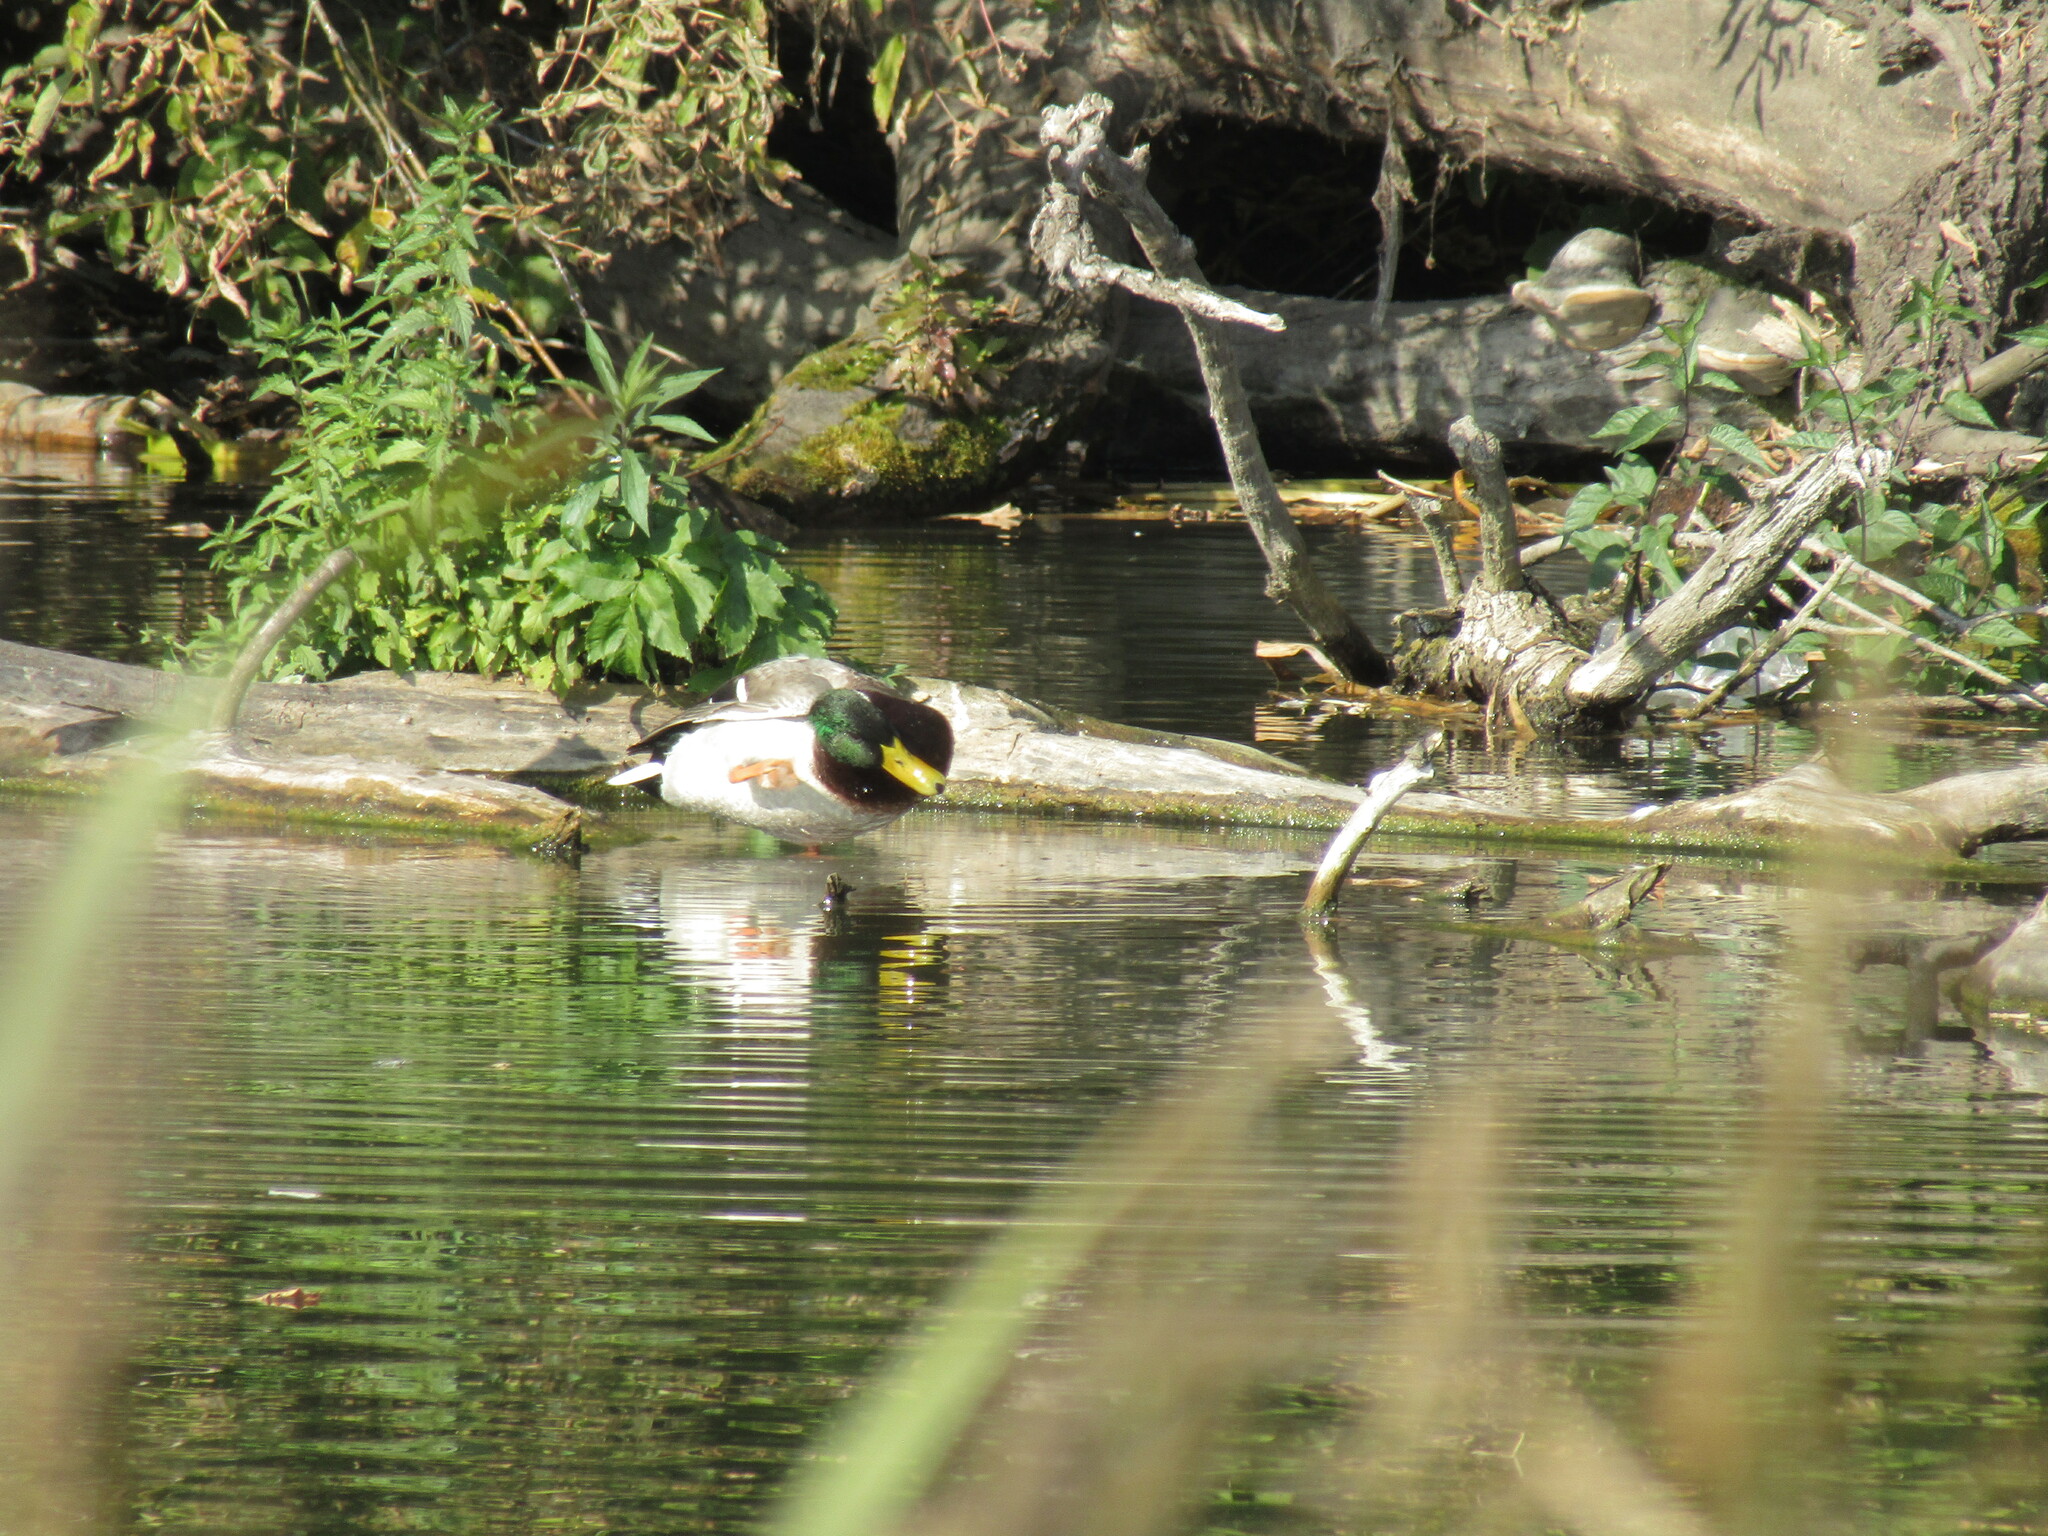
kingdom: Animalia
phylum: Chordata
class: Aves
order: Anseriformes
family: Anatidae
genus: Anas
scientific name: Anas platyrhynchos
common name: Mallard
